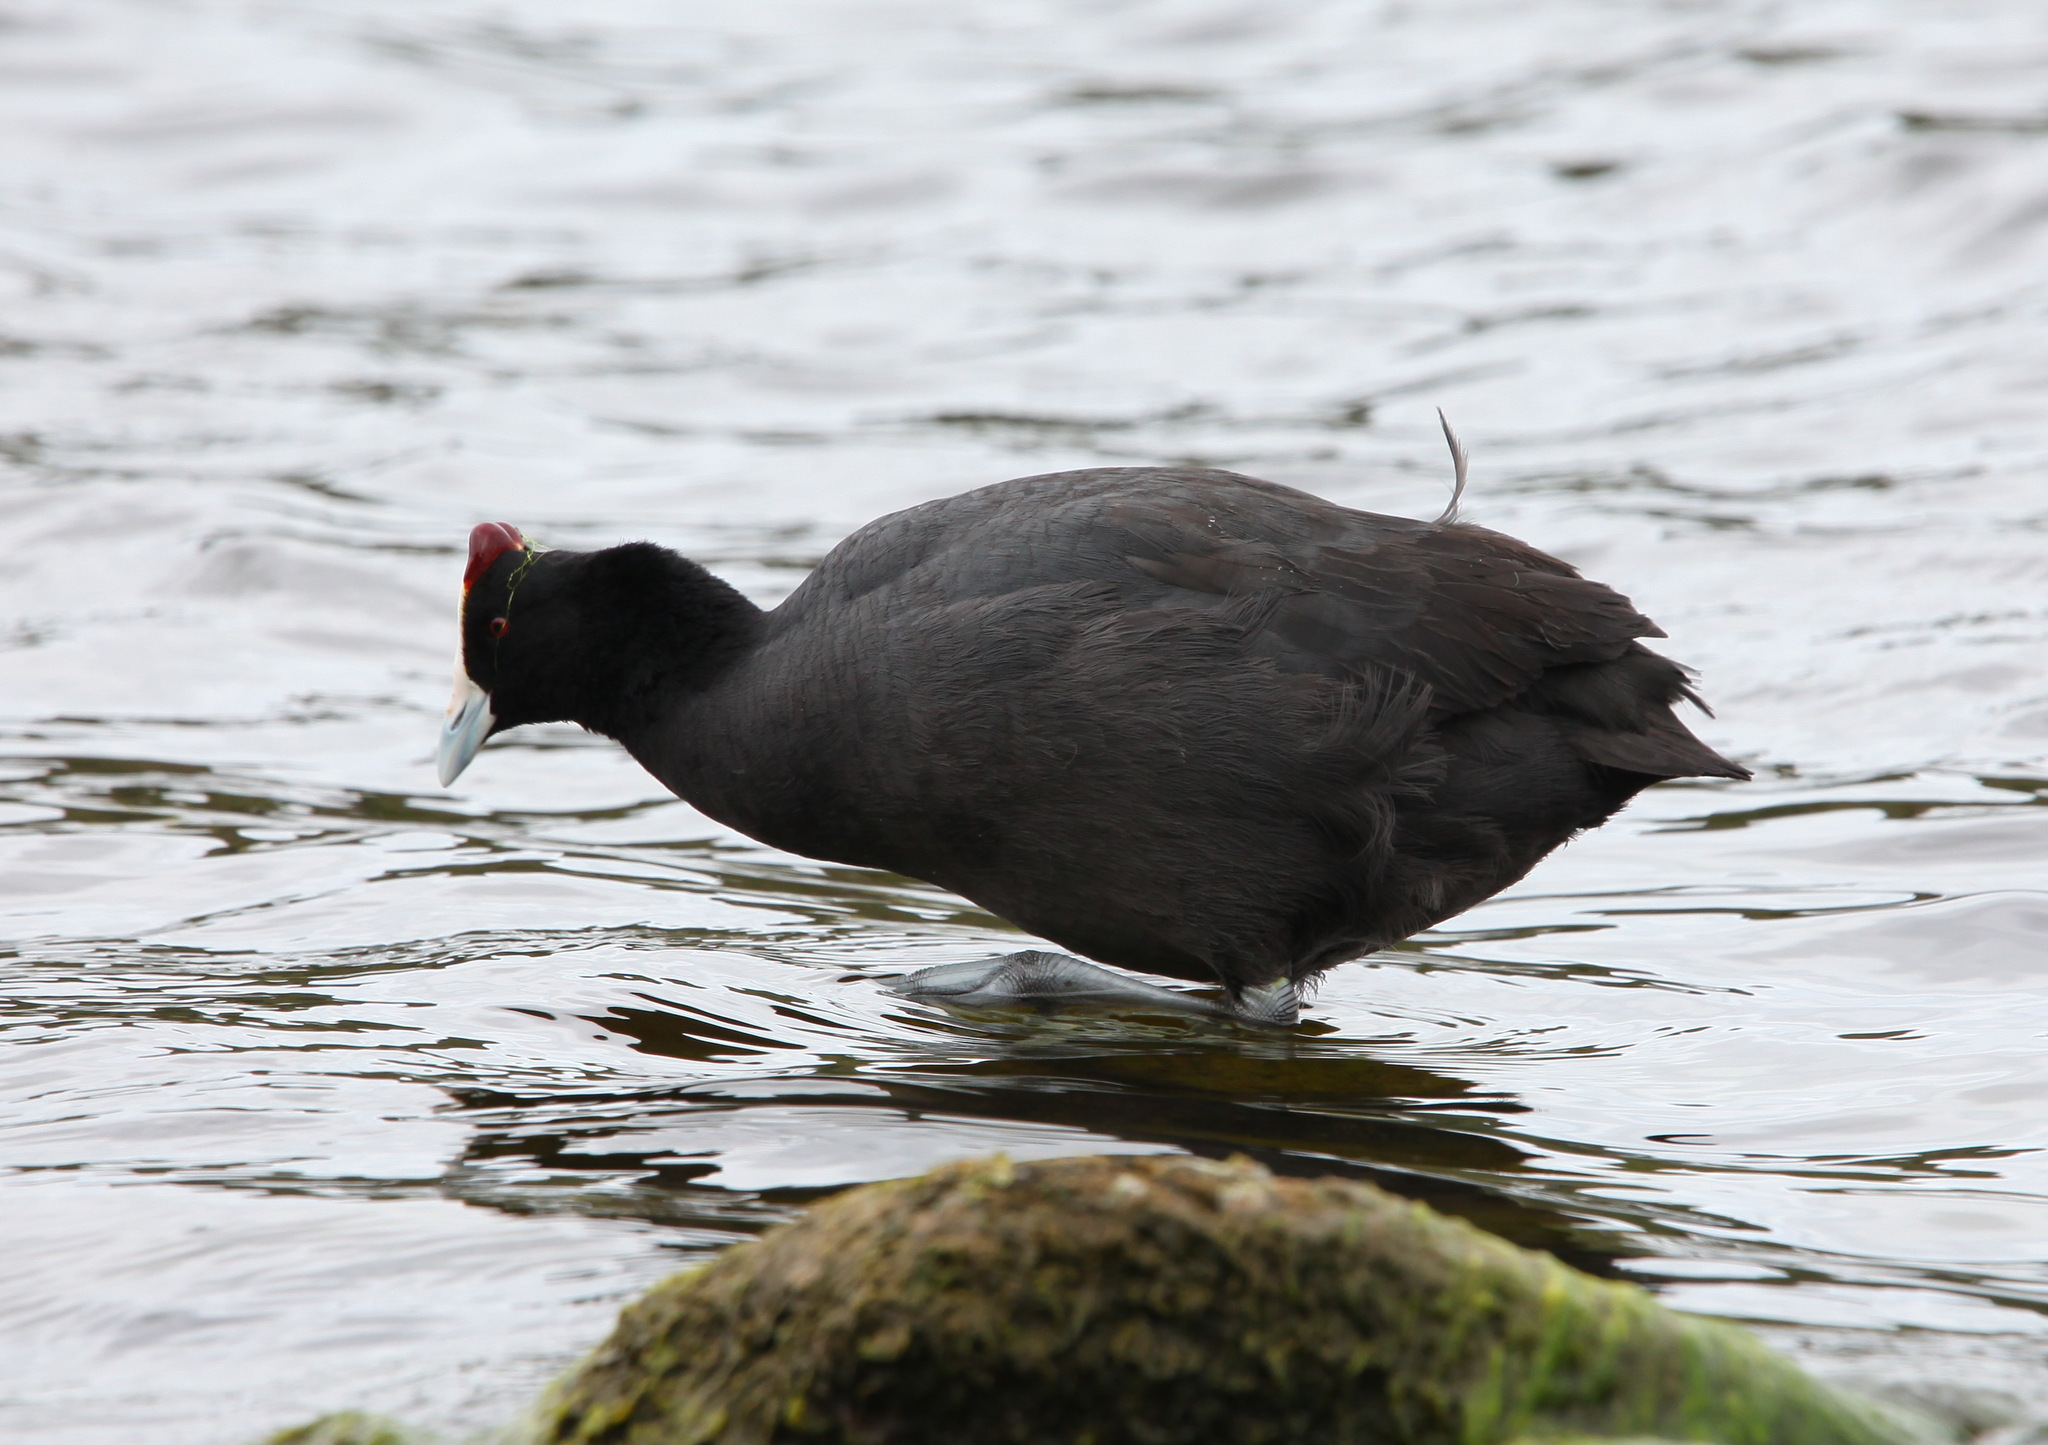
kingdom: Animalia
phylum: Chordata
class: Aves
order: Gruiformes
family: Rallidae
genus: Fulica
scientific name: Fulica cristata
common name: Red-knobbed coot
